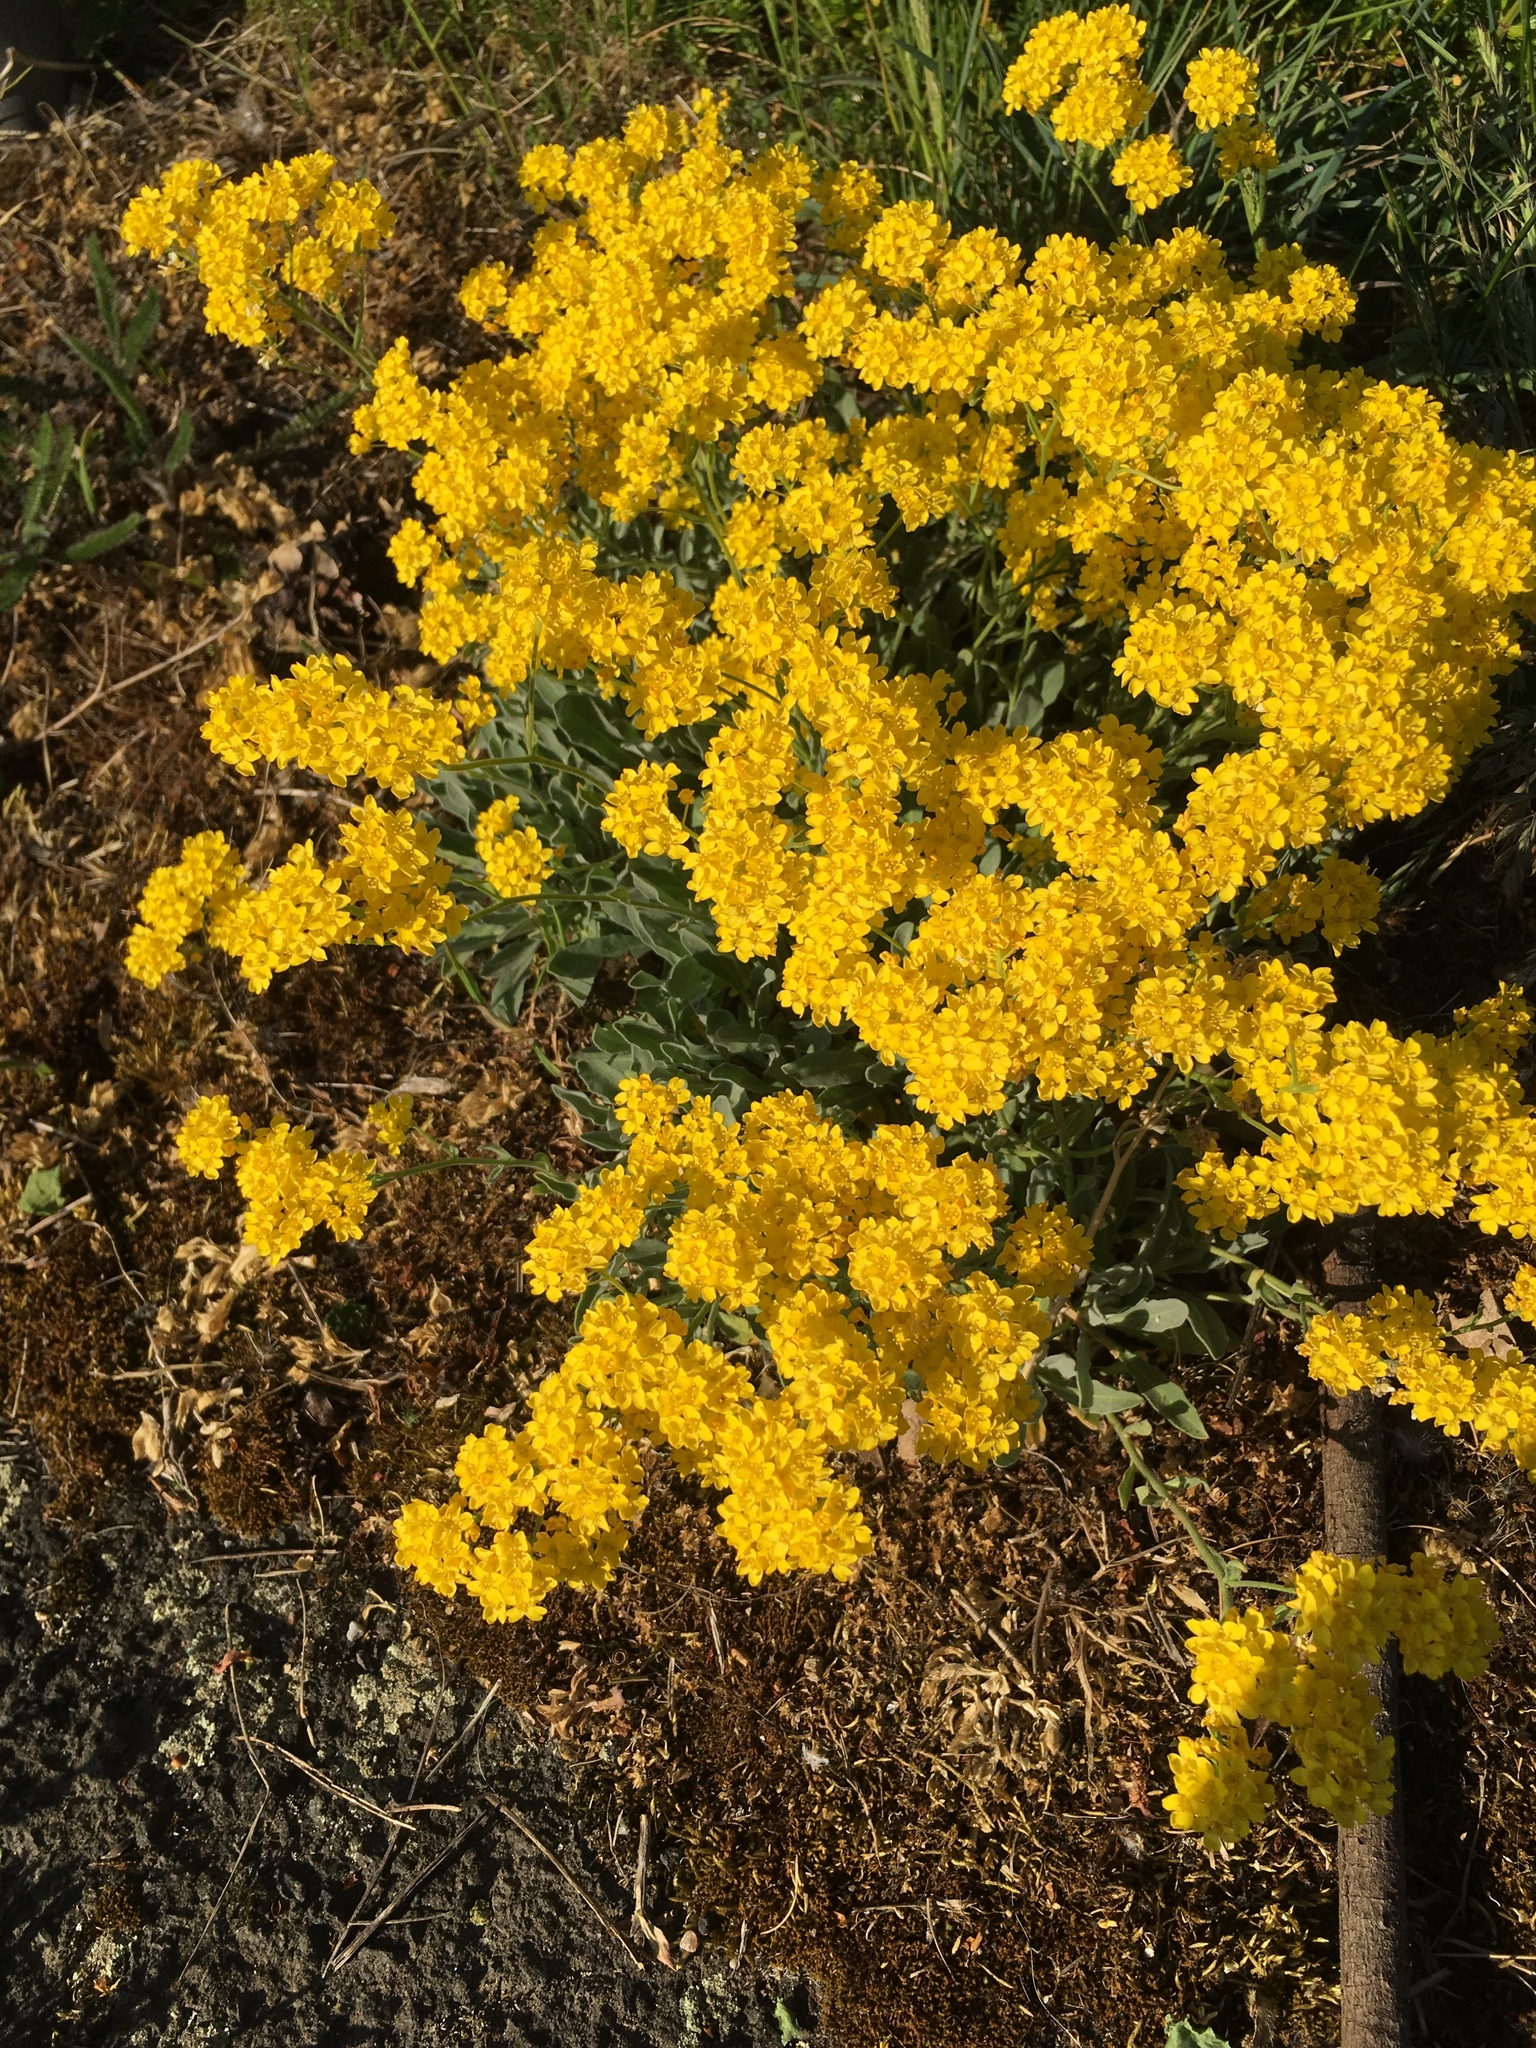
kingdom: Plantae
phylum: Tracheophyta
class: Magnoliopsida
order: Brassicales
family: Brassicaceae
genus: Aurinia
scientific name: Aurinia saxatilis
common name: Golden-tuft alyssum
